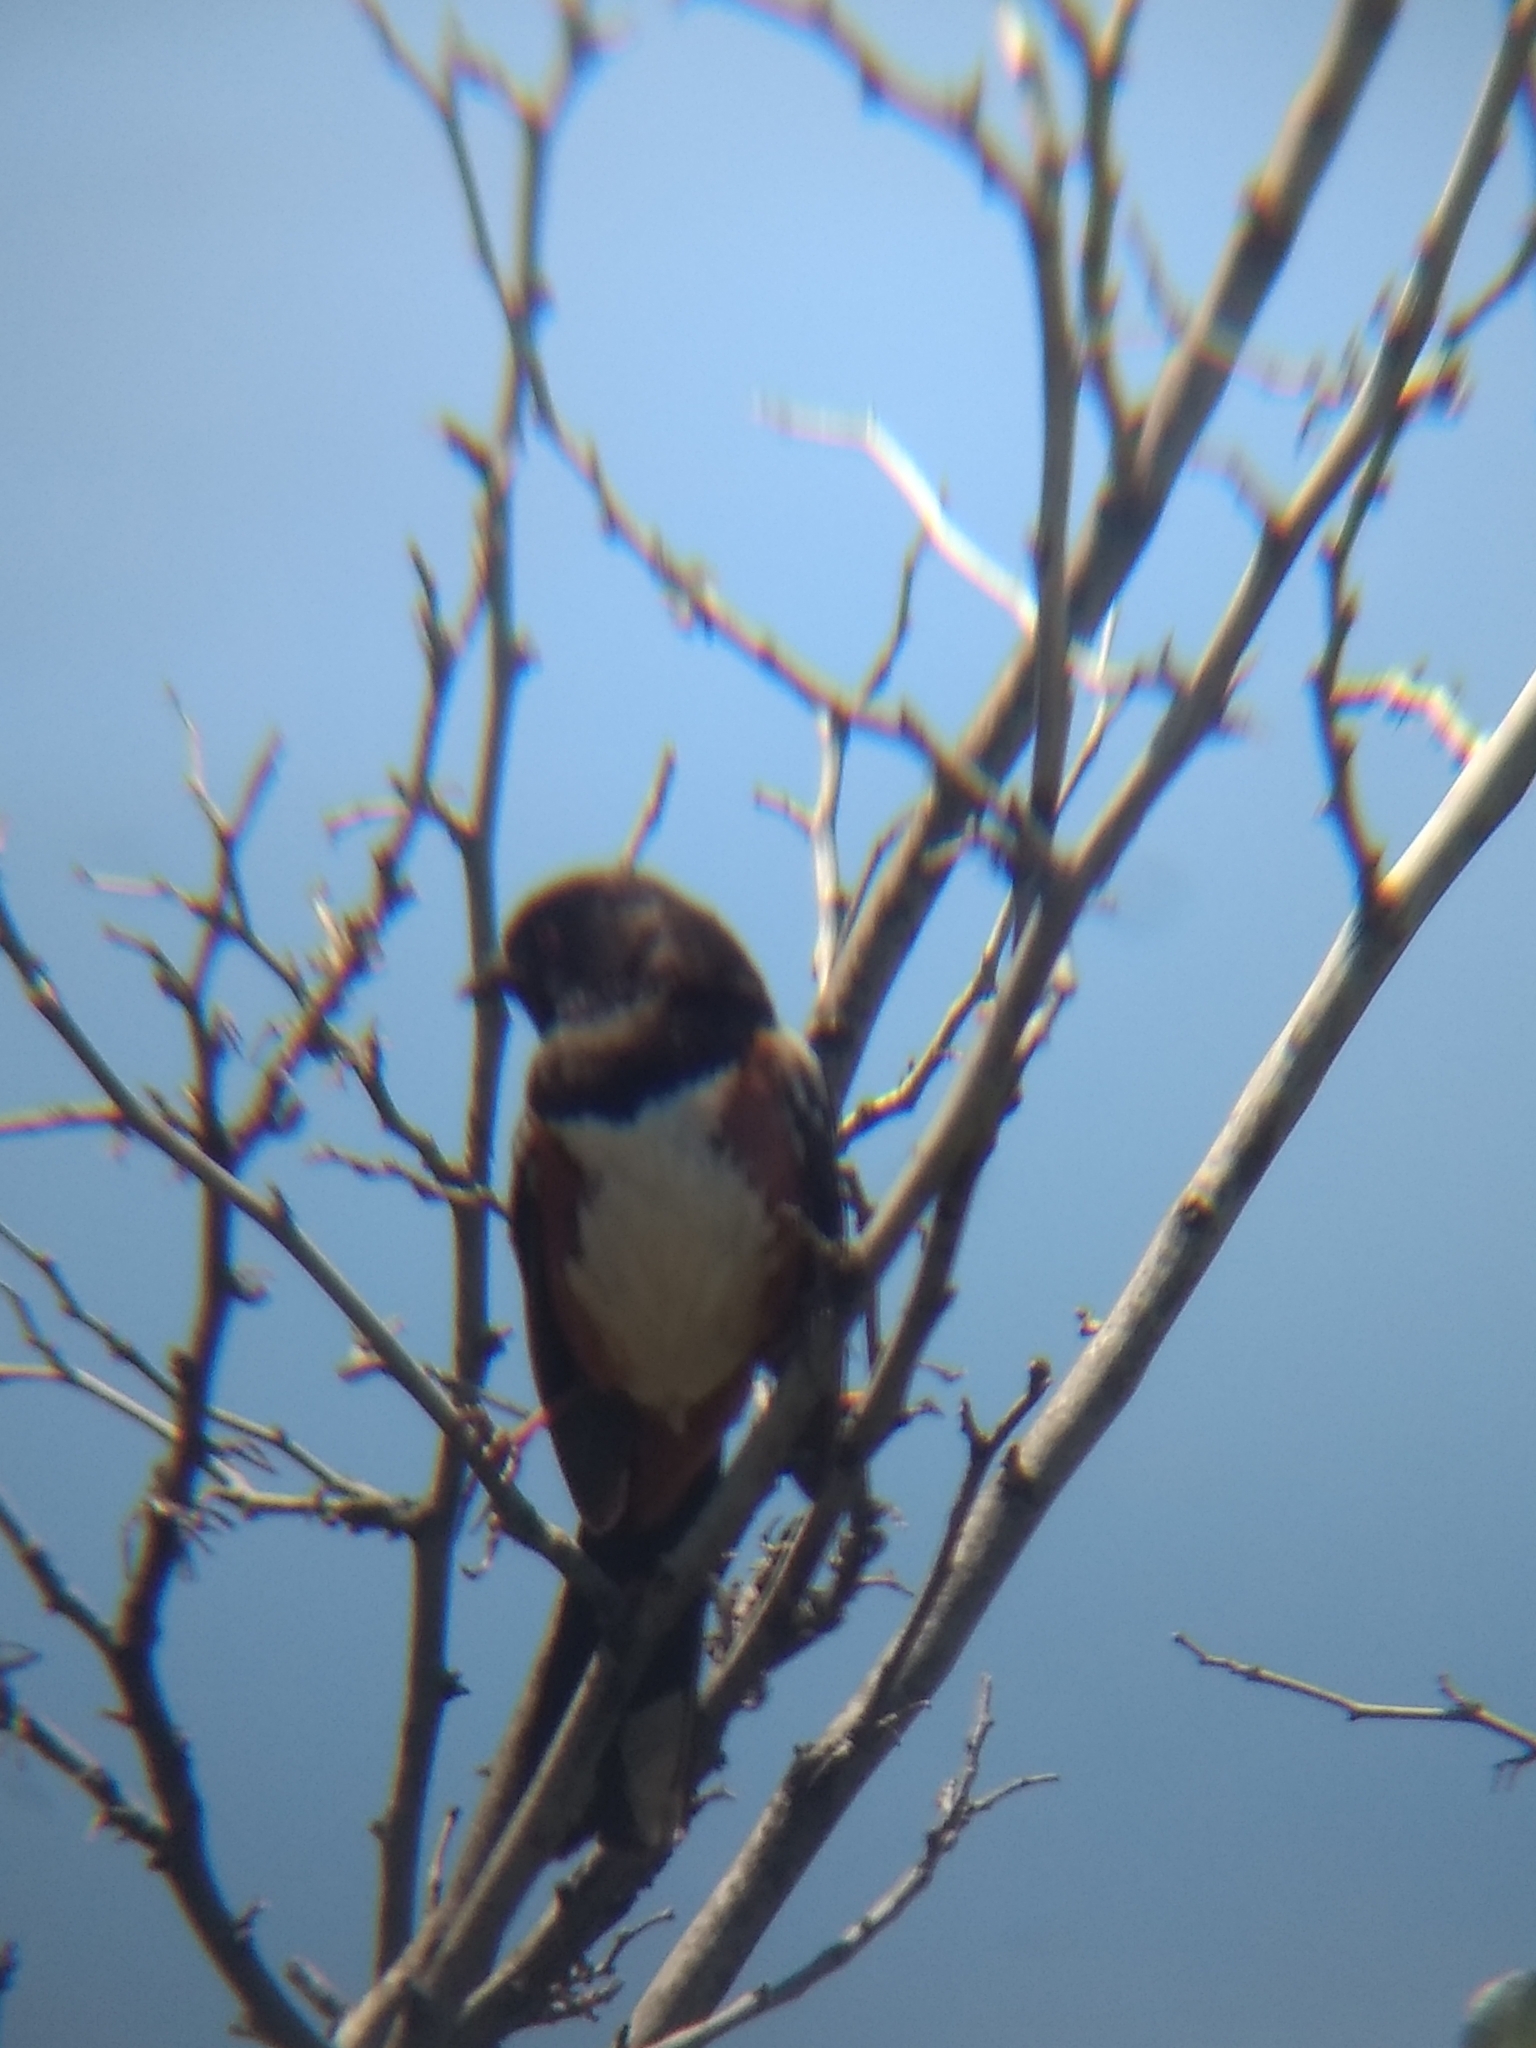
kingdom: Animalia
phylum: Chordata
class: Aves
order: Passeriformes
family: Passerellidae
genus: Pipilo
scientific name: Pipilo maculatus
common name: Spotted towhee
